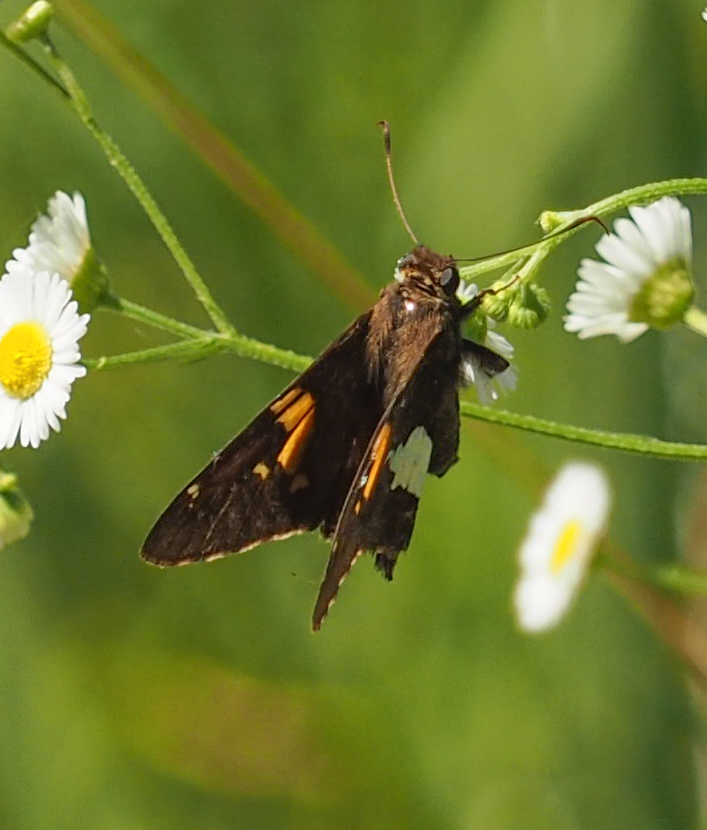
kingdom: Animalia
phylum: Arthropoda
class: Insecta
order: Lepidoptera
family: Hesperiidae
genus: Epargyreus
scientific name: Epargyreus clarus
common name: Silver-spotted skipper
